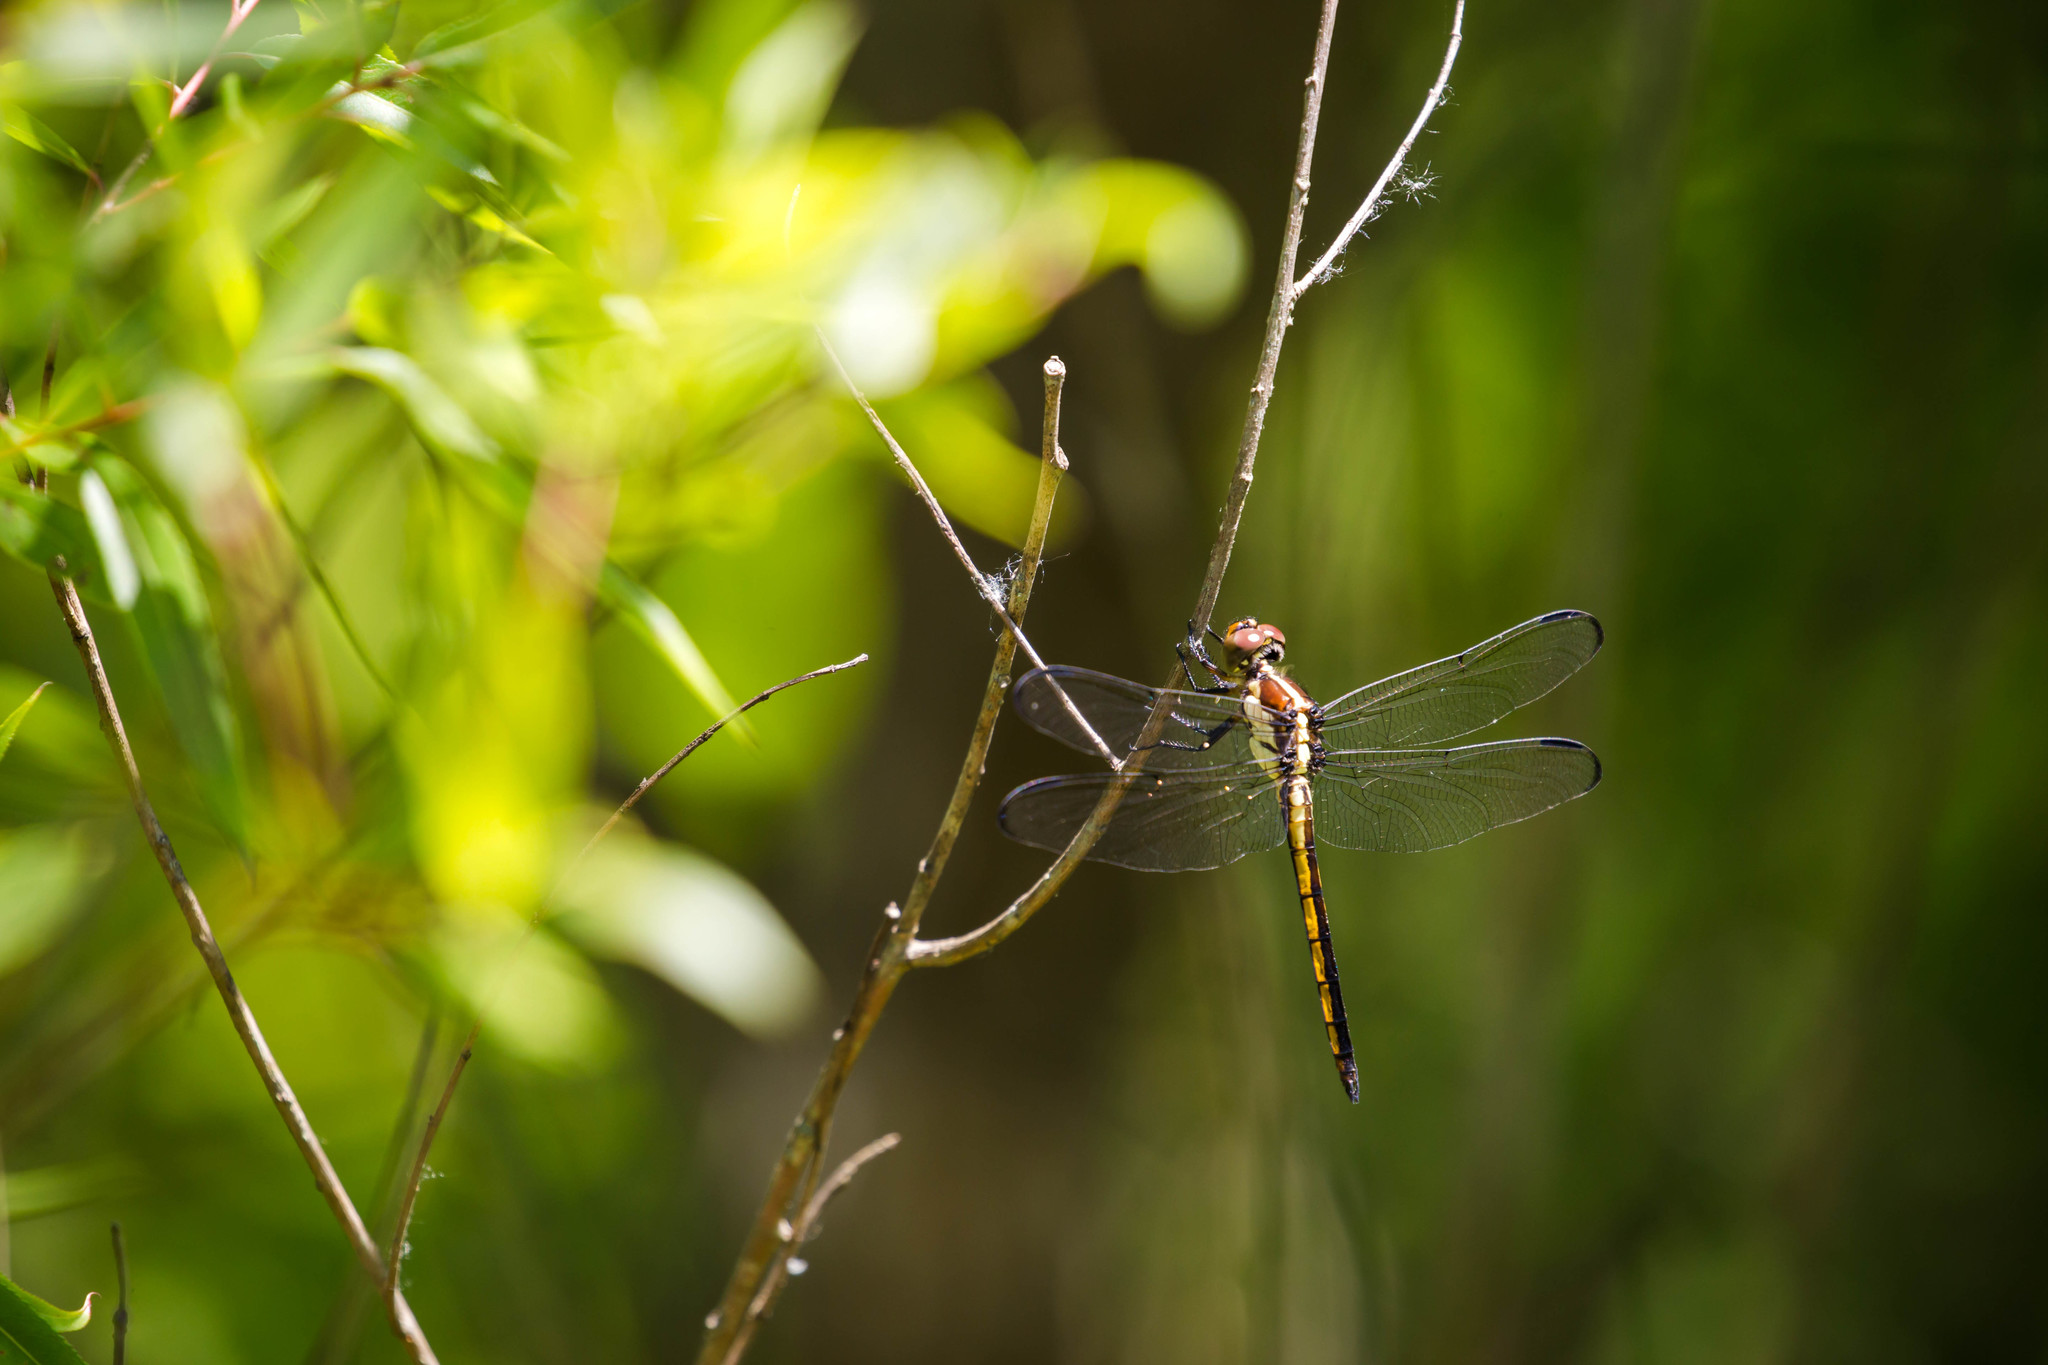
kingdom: Animalia
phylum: Arthropoda
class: Insecta
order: Odonata
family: Libellulidae
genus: Libellula
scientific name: Libellula incesta
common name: Slaty skimmer
